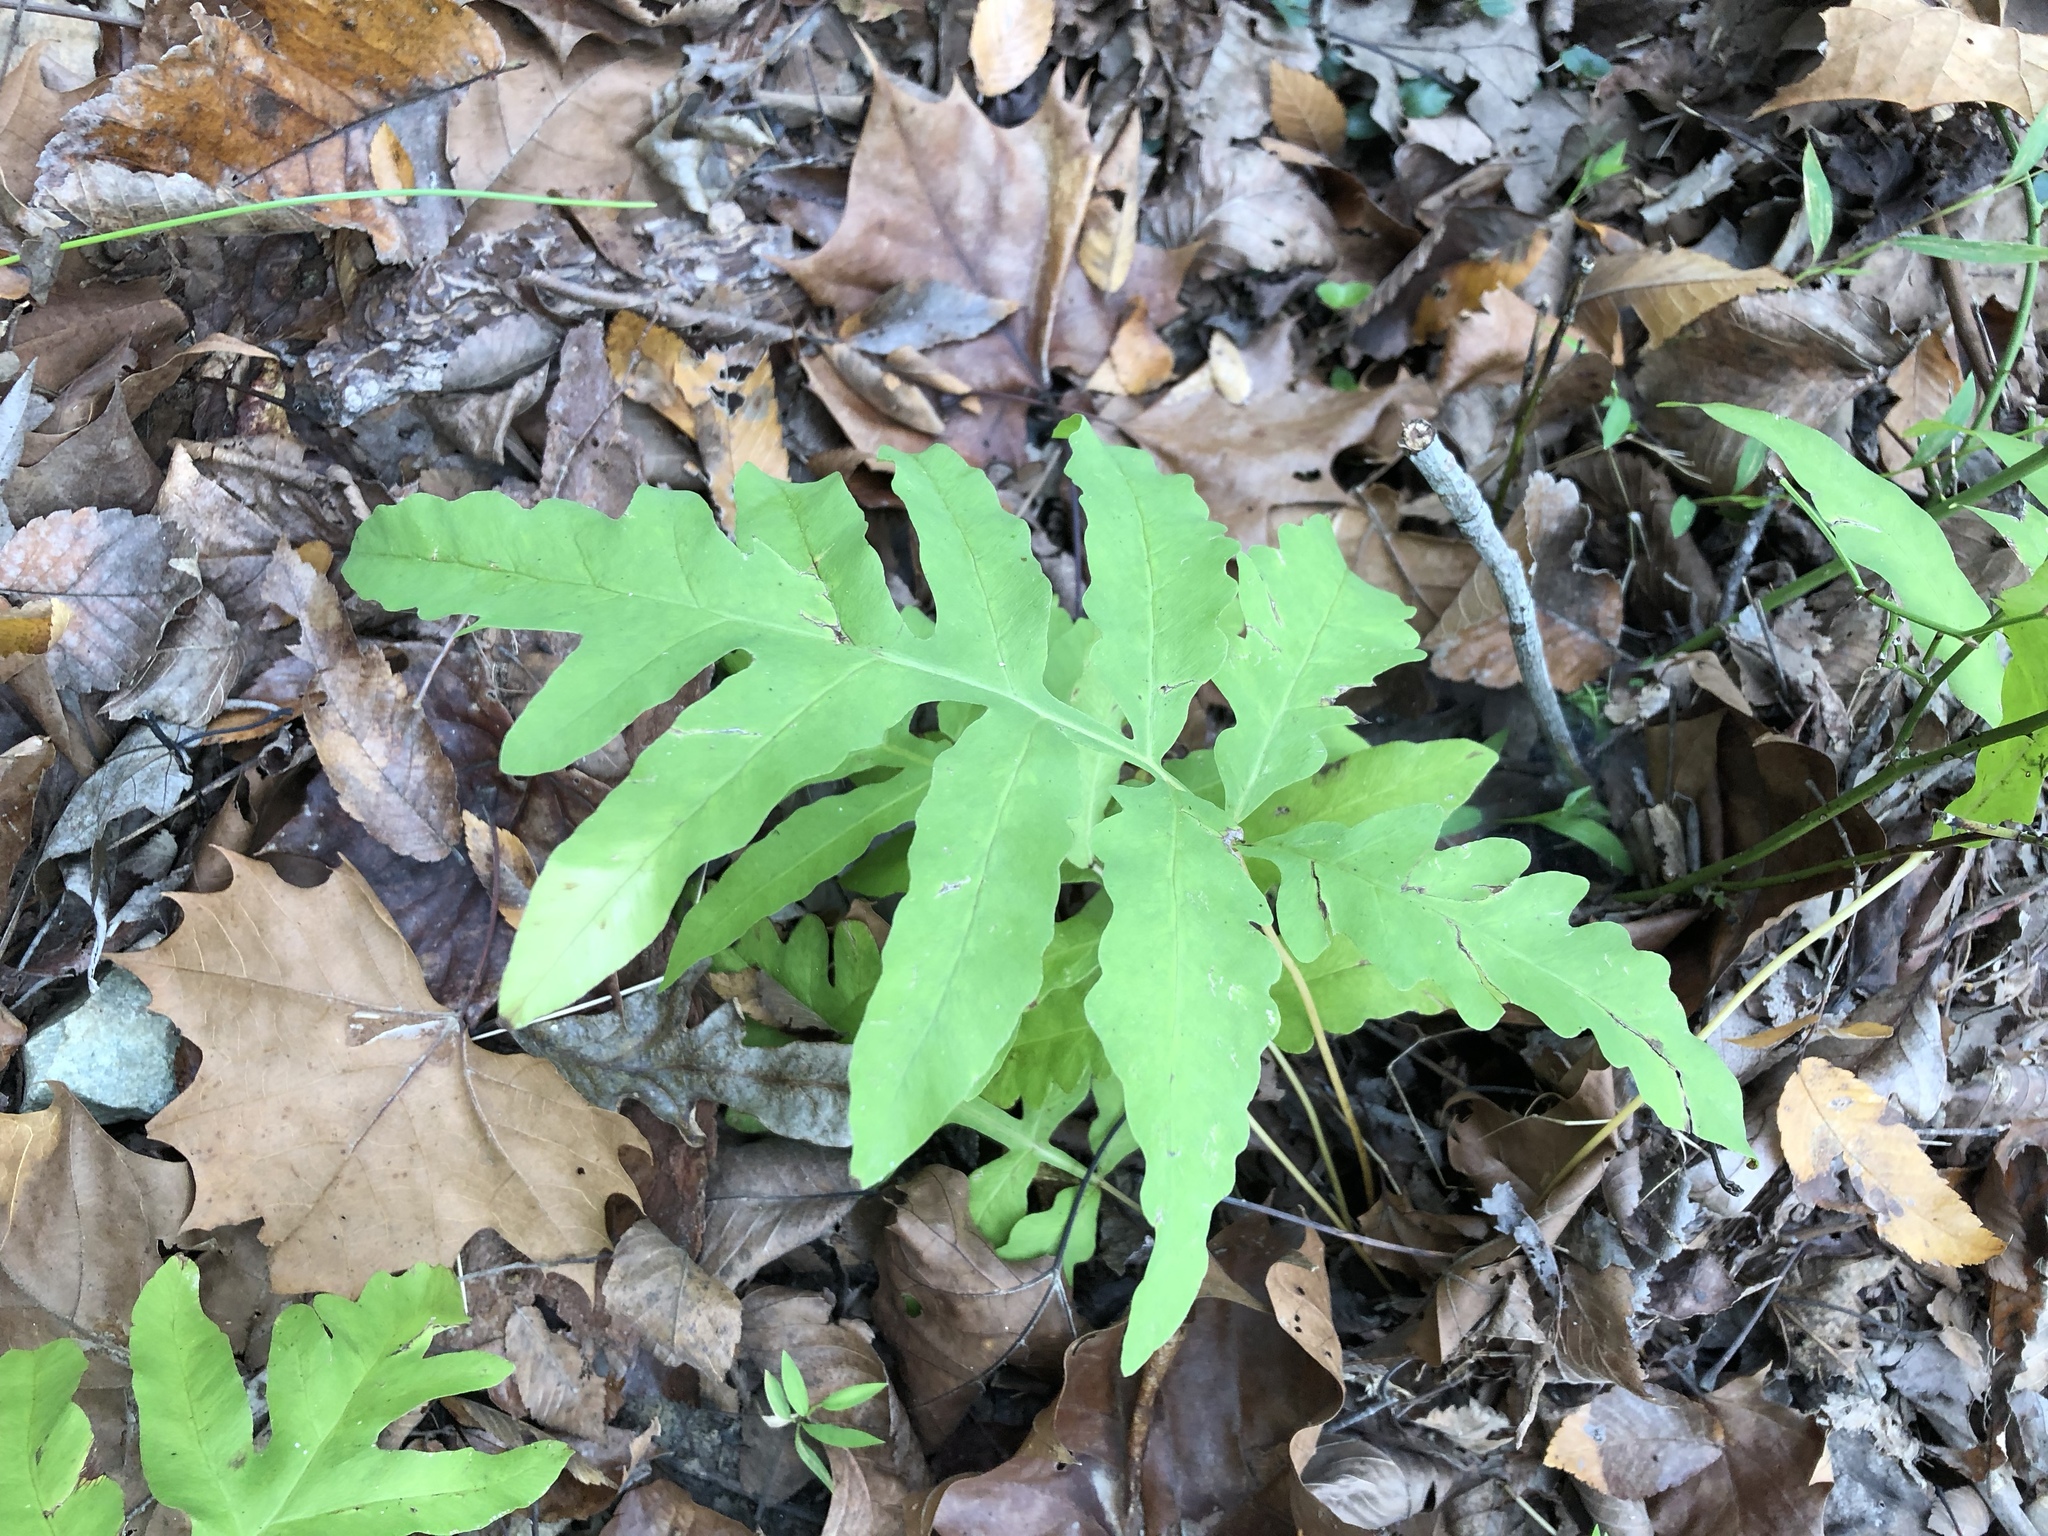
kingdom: Plantae
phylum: Tracheophyta
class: Polypodiopsida
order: Polypodiales
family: Onocleaceae
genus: Onoclea
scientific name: Onoclea sensibilis
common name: Sensitive fern
